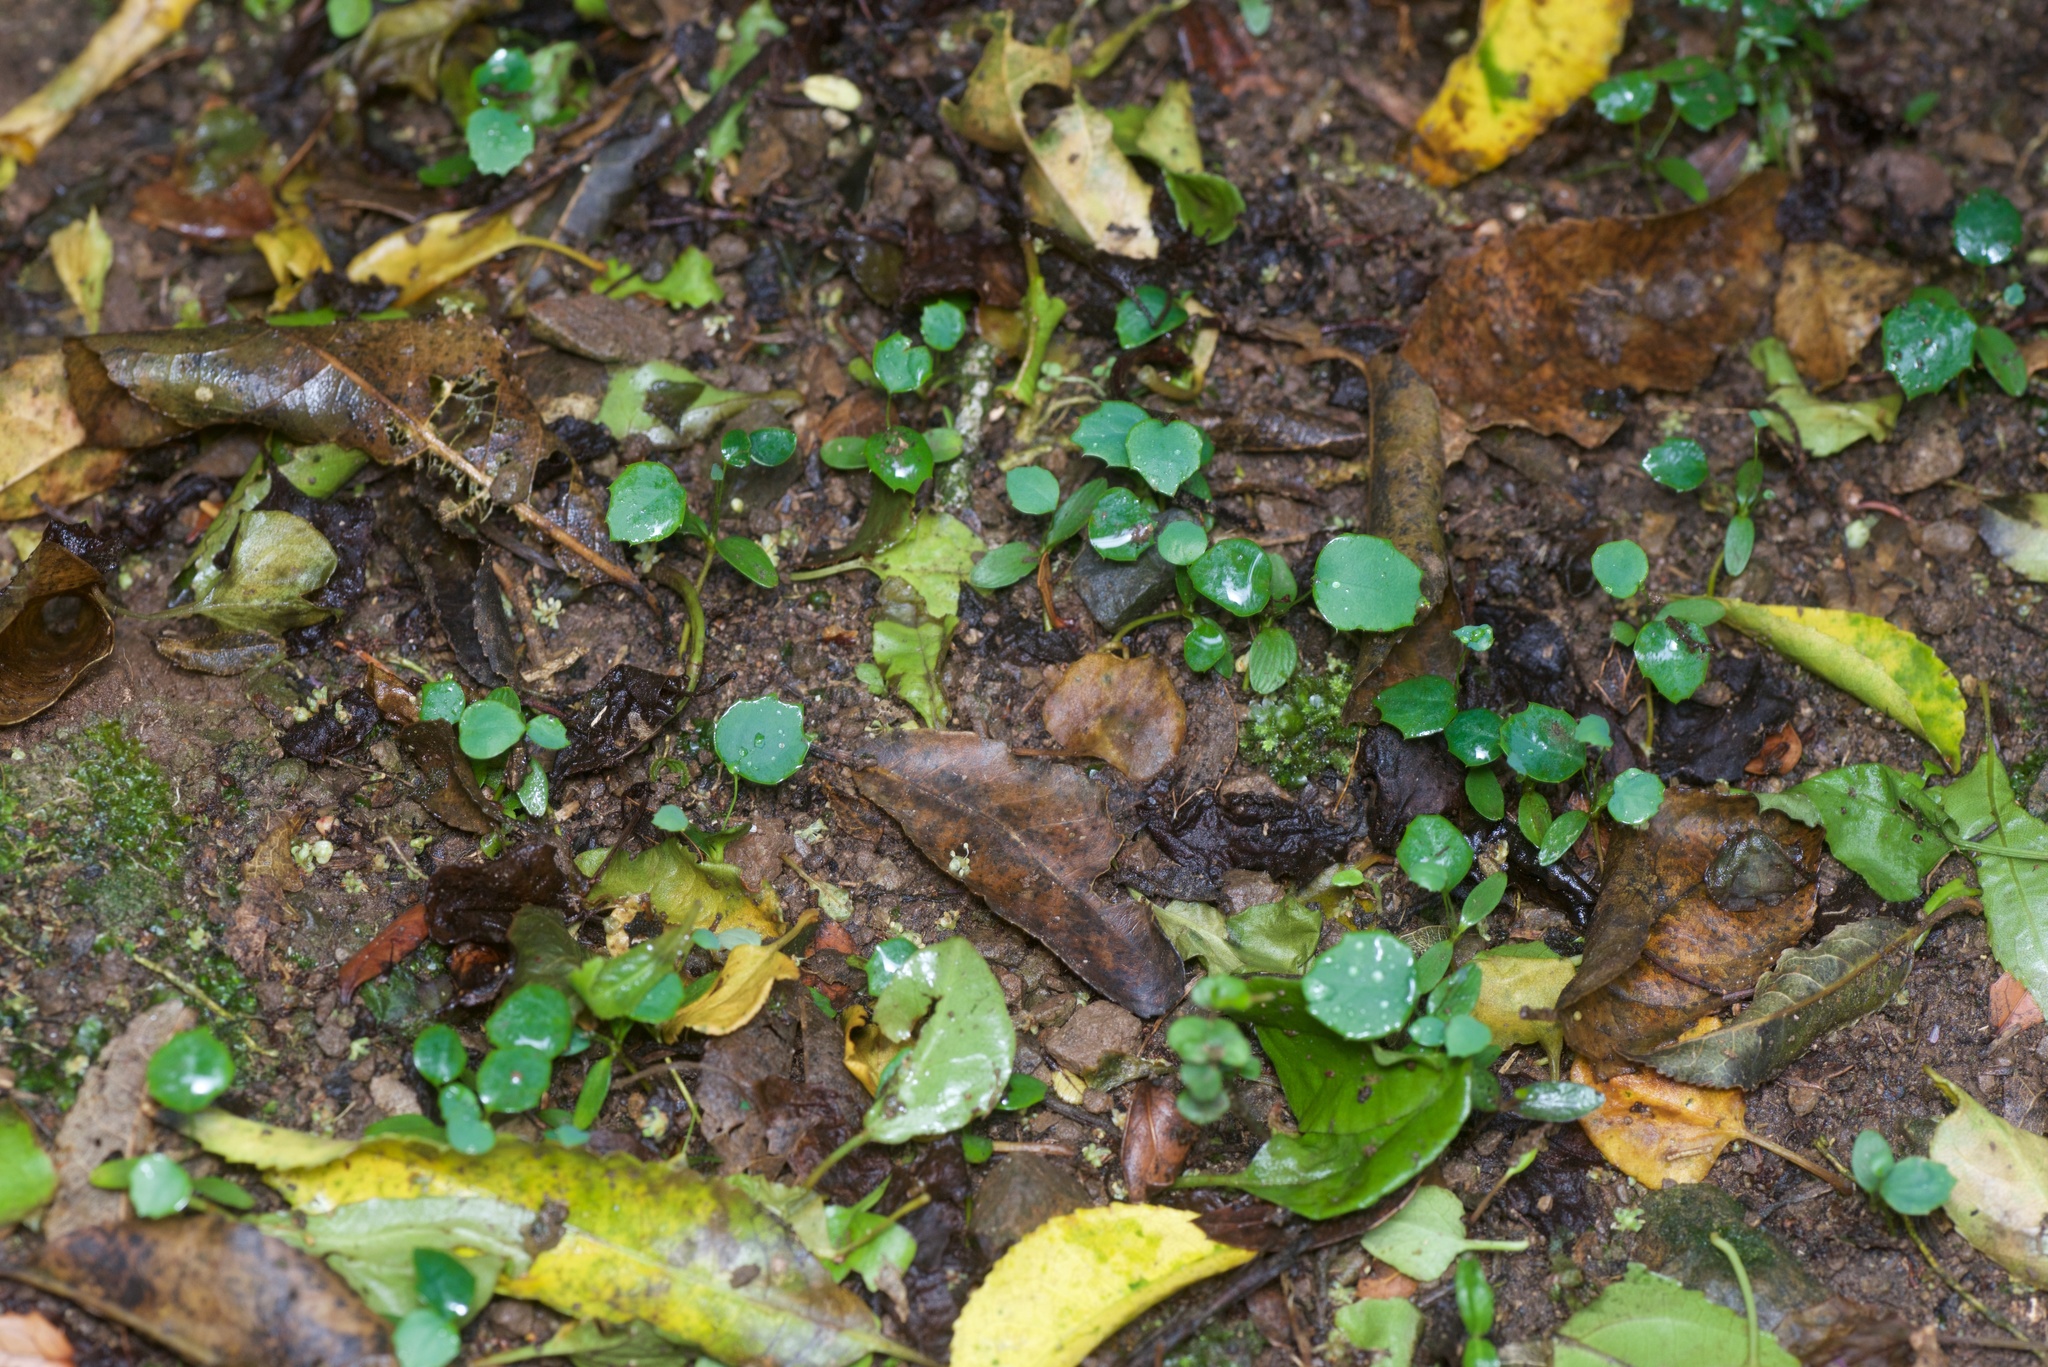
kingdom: Plantae
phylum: Tracheophyta
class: Magnoliopsida
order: Ranunculales
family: Berberidaceae
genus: Berberis
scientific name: Berberis darwinii
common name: Darwin's barberry
